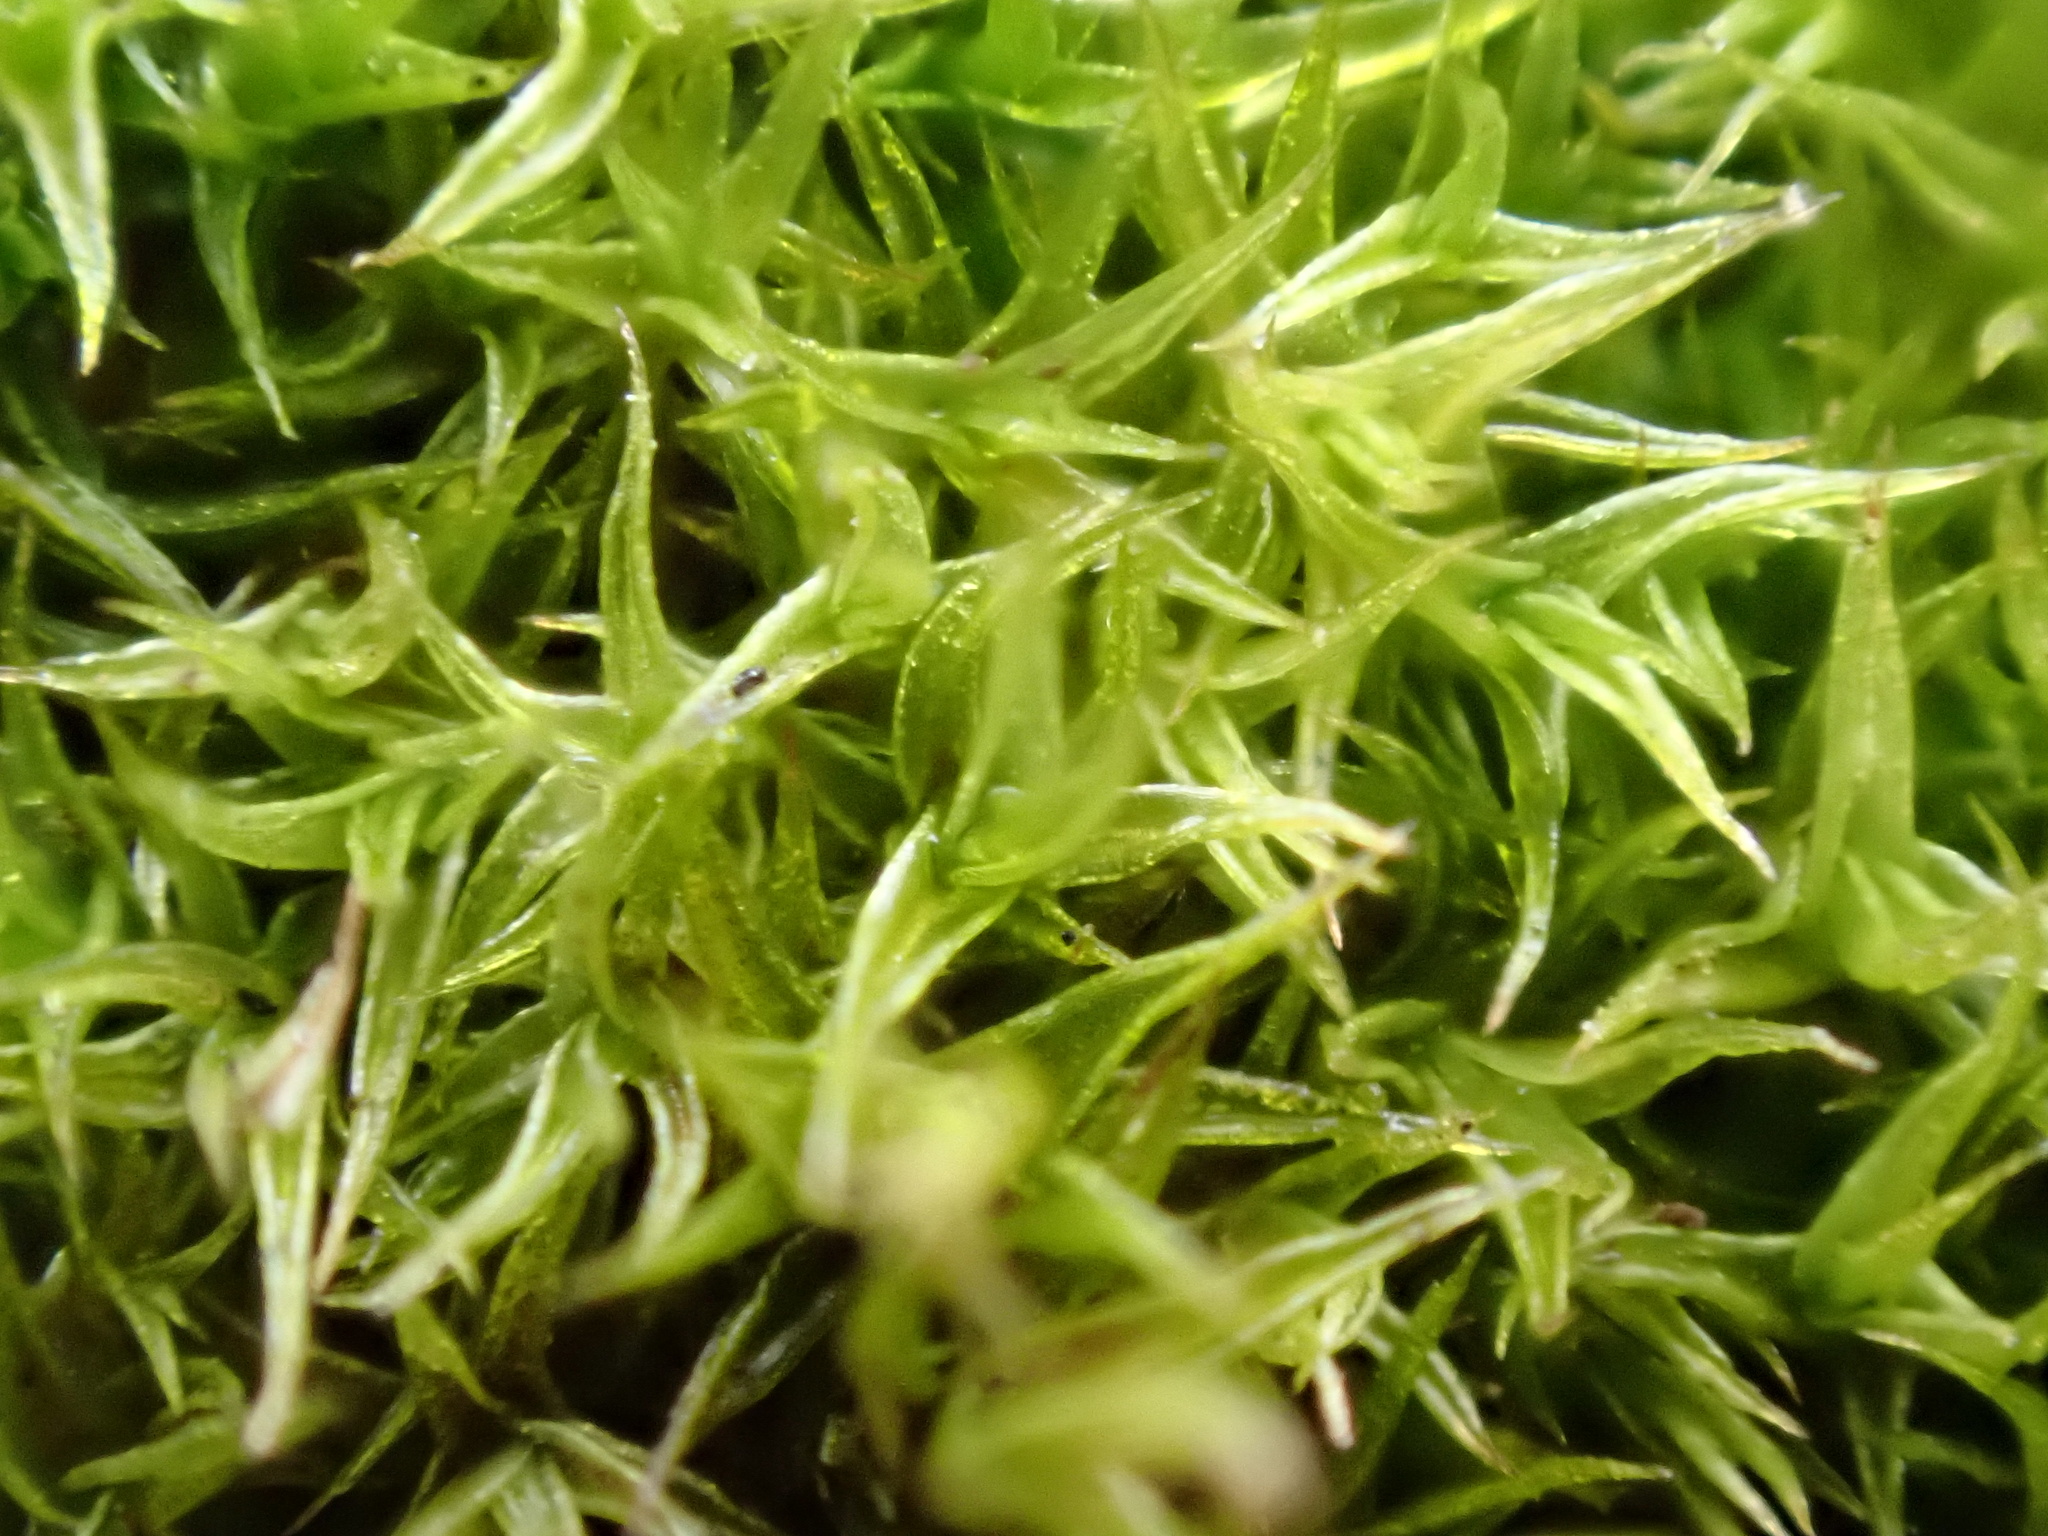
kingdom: Plantae
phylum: Bryophyta
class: Bryopsida
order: Pottiales
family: Pottiaceae
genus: Vinealobryum
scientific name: Vinealobryum vineale
